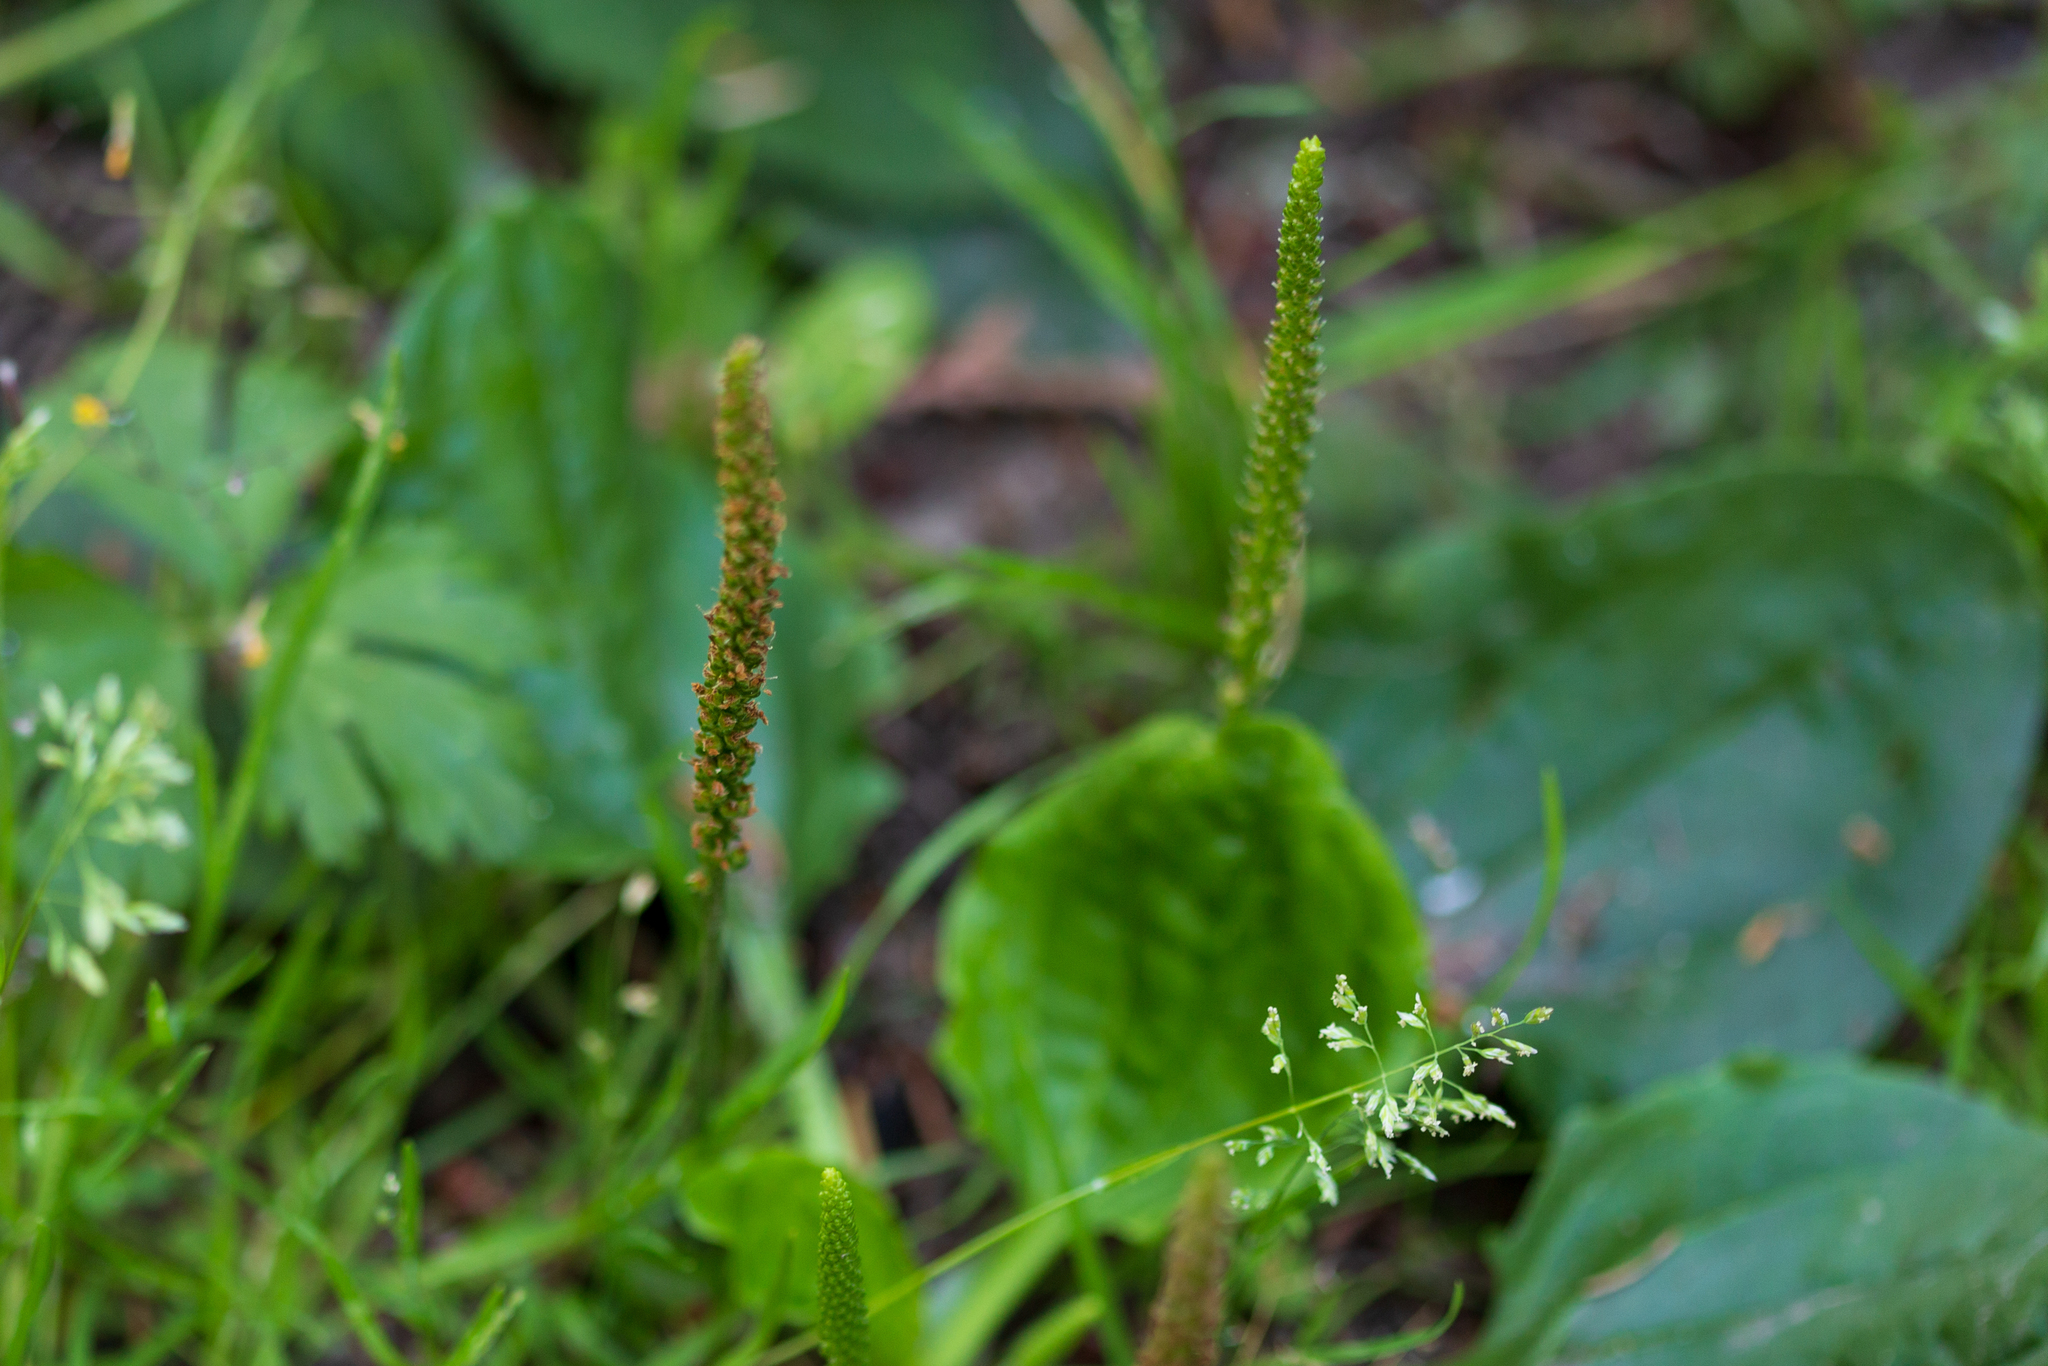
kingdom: Plantae
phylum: Tracheophyta
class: Magnoliopsida
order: Lamiales
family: Plantaginaceae
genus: Plantago
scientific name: Plantago major
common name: Common plantain
